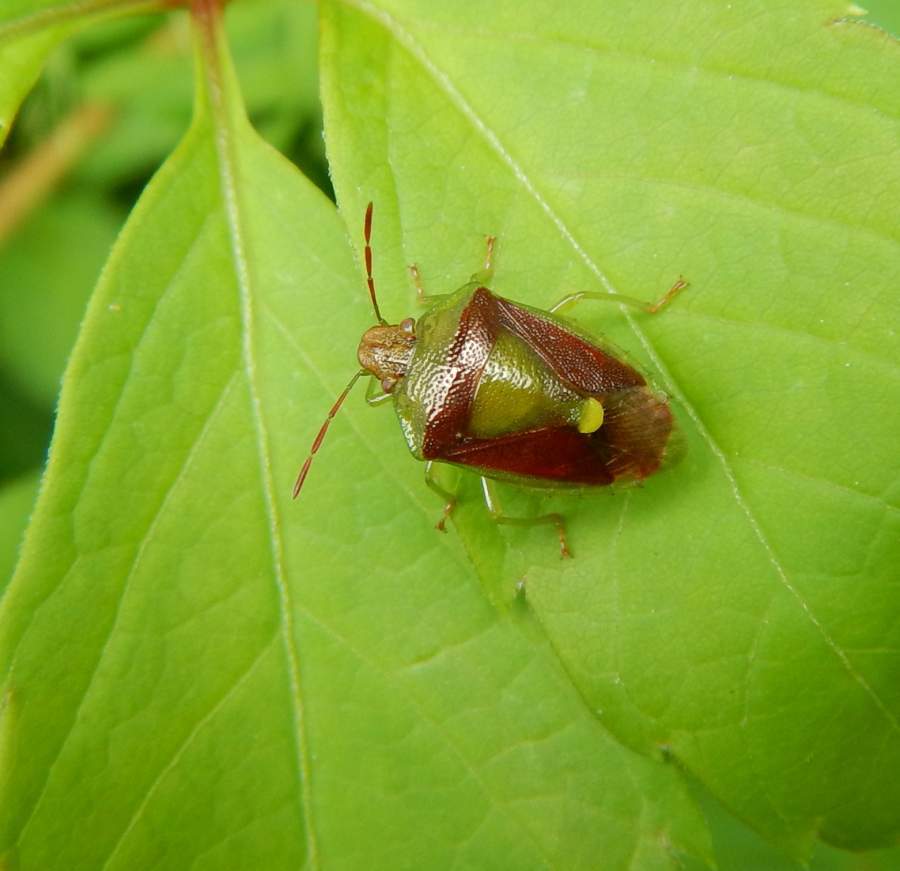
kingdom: Animalia
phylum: Arthropoda
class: Insecta
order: Hemiptera
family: Pentatomidae
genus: Banasa
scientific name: Banasa dimidiata
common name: Green burgundy stink bug
